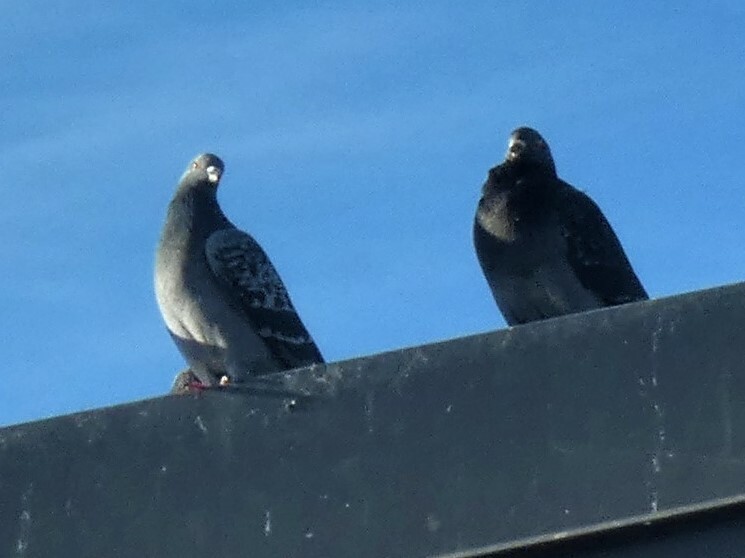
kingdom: Animalia
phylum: Chordata
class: Aves
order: Columbiformes
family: Columbidae
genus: Columba
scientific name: Columba livia
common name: Rock pigeon
